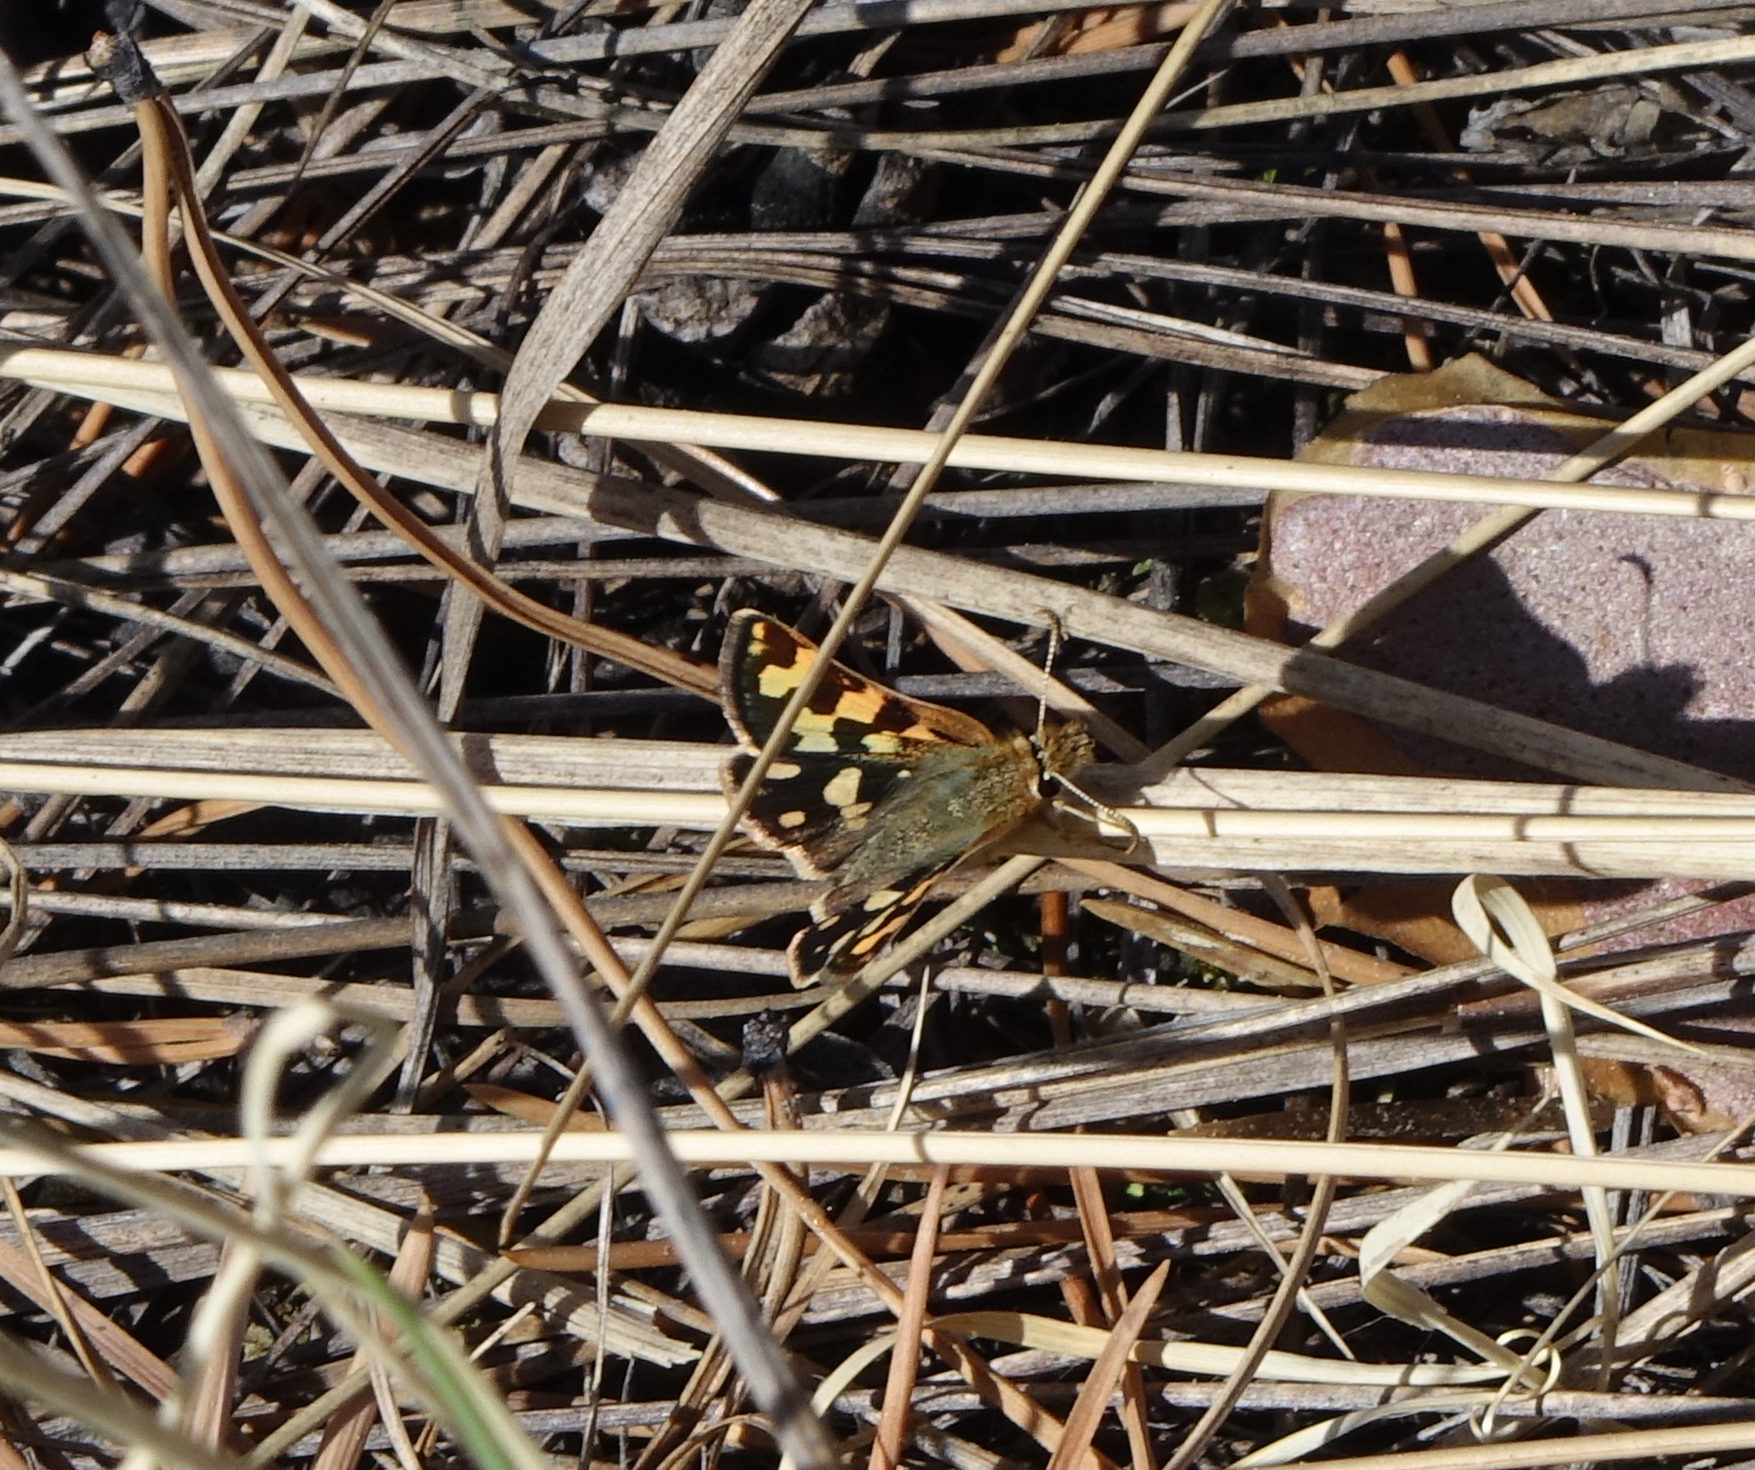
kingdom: Animalia
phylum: Arthropoda
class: Insecta
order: Lepidoptera
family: Hesperiidae
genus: Carterocephalus
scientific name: Carterocephalus argyrostigma
